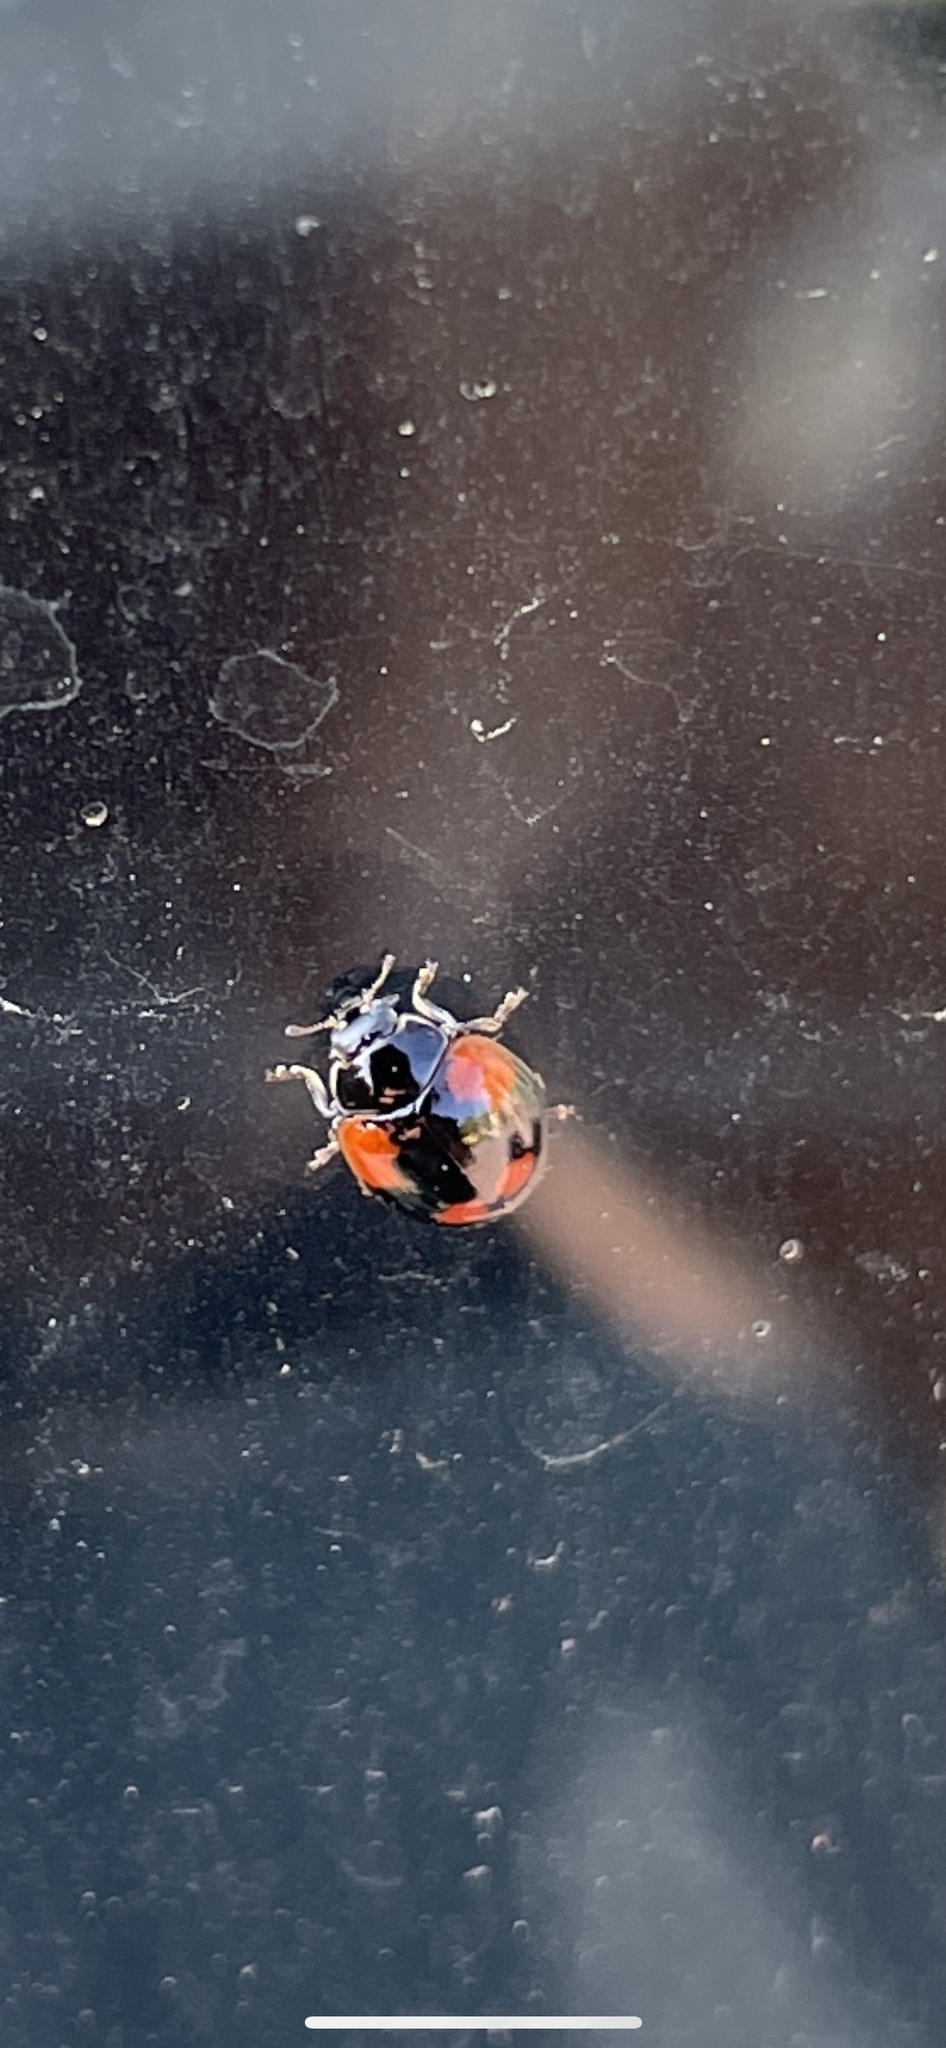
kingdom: Animalia
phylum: Arthropoda
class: Insecta
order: Coleoptera
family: Coccinellidae
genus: Adalia
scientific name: Adalia bipunctata
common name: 2-spot ladybird
